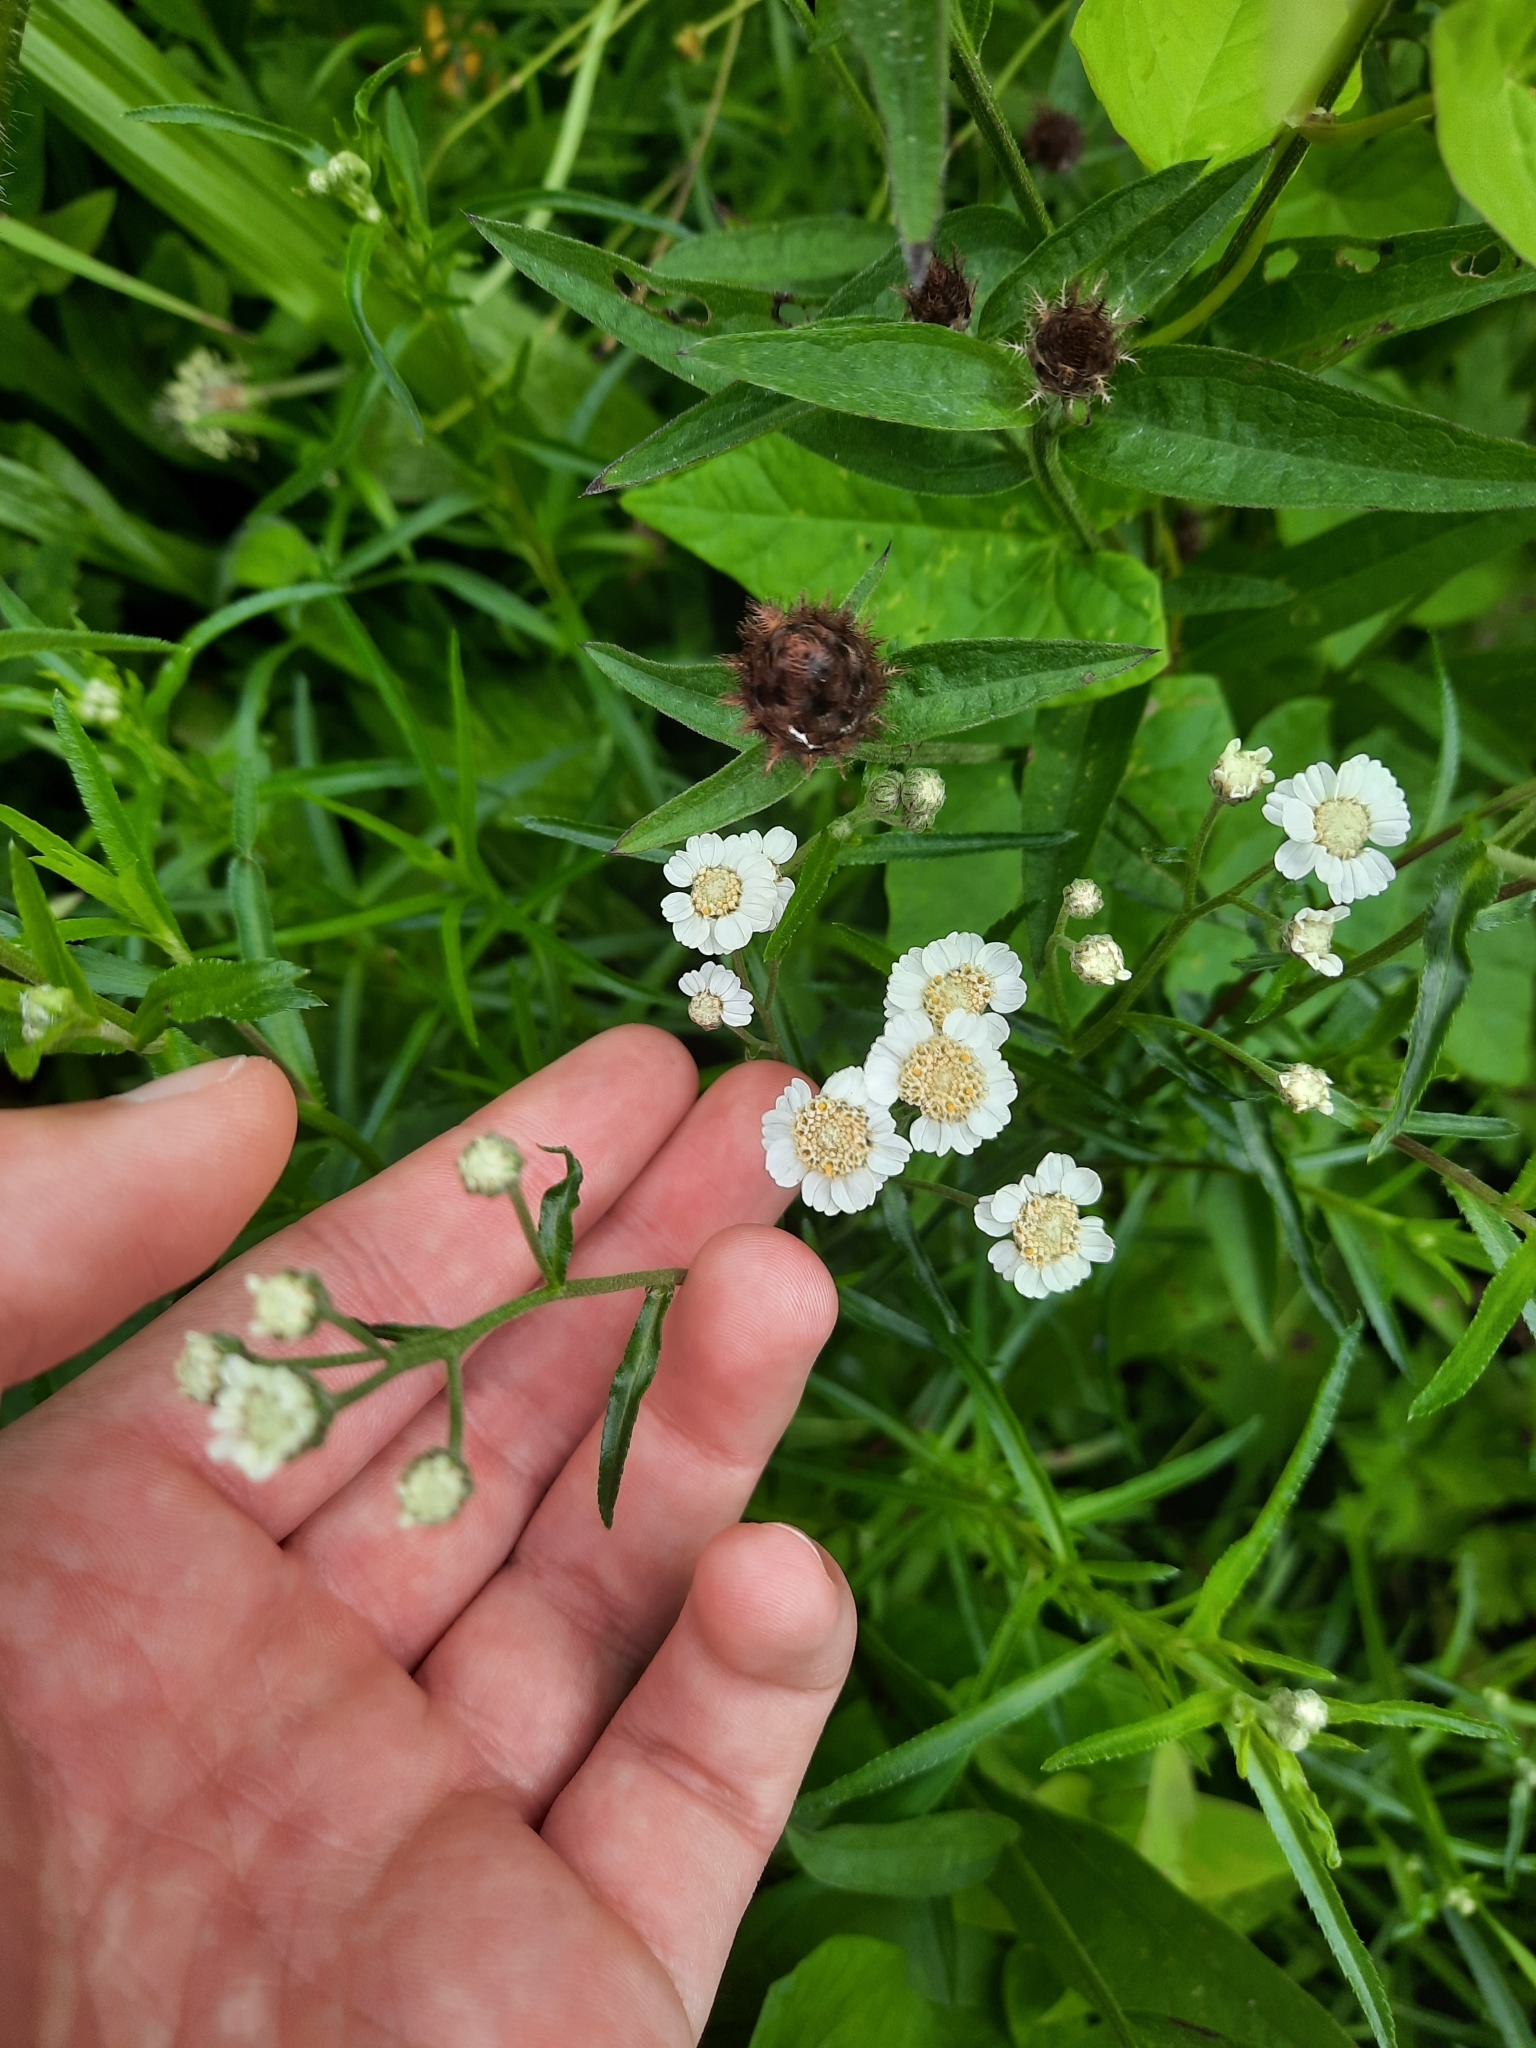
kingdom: Plantae
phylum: Tracheophyta
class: Magnoliopsida
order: Asterales
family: Asteraceae
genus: Achillea
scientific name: Achillea ptarmica
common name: Sneezeweed
